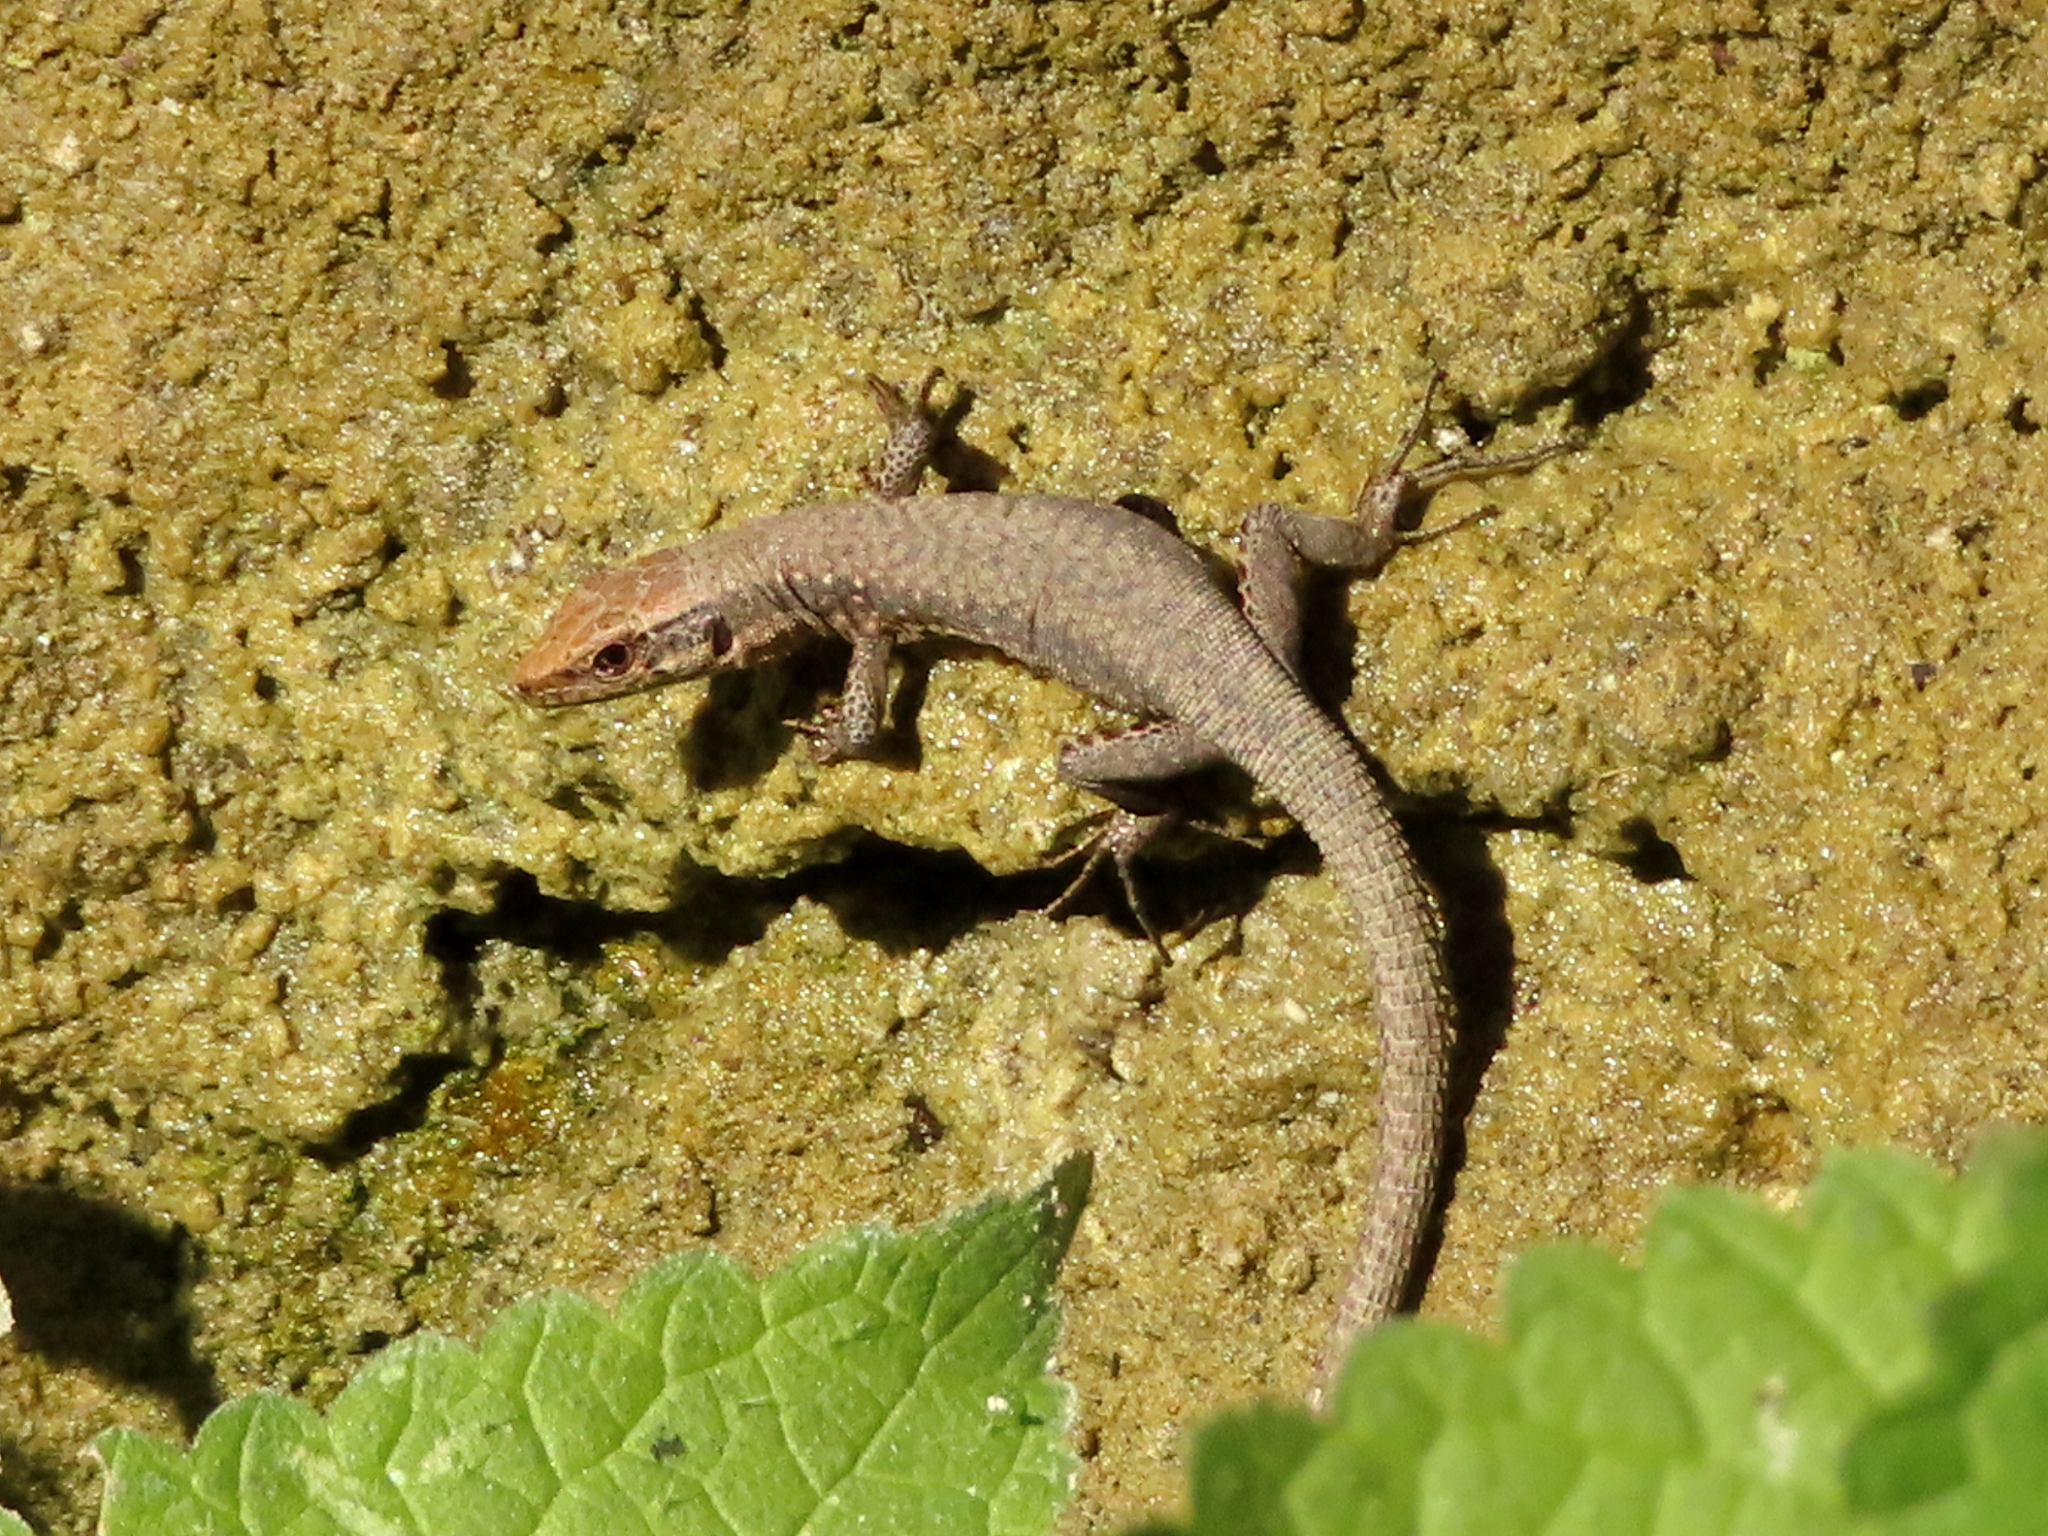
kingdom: Animalia
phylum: Chordata
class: Squamata
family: Lacertidae
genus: Darevskia
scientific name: Darevskia mixta
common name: Ajarian lizard
